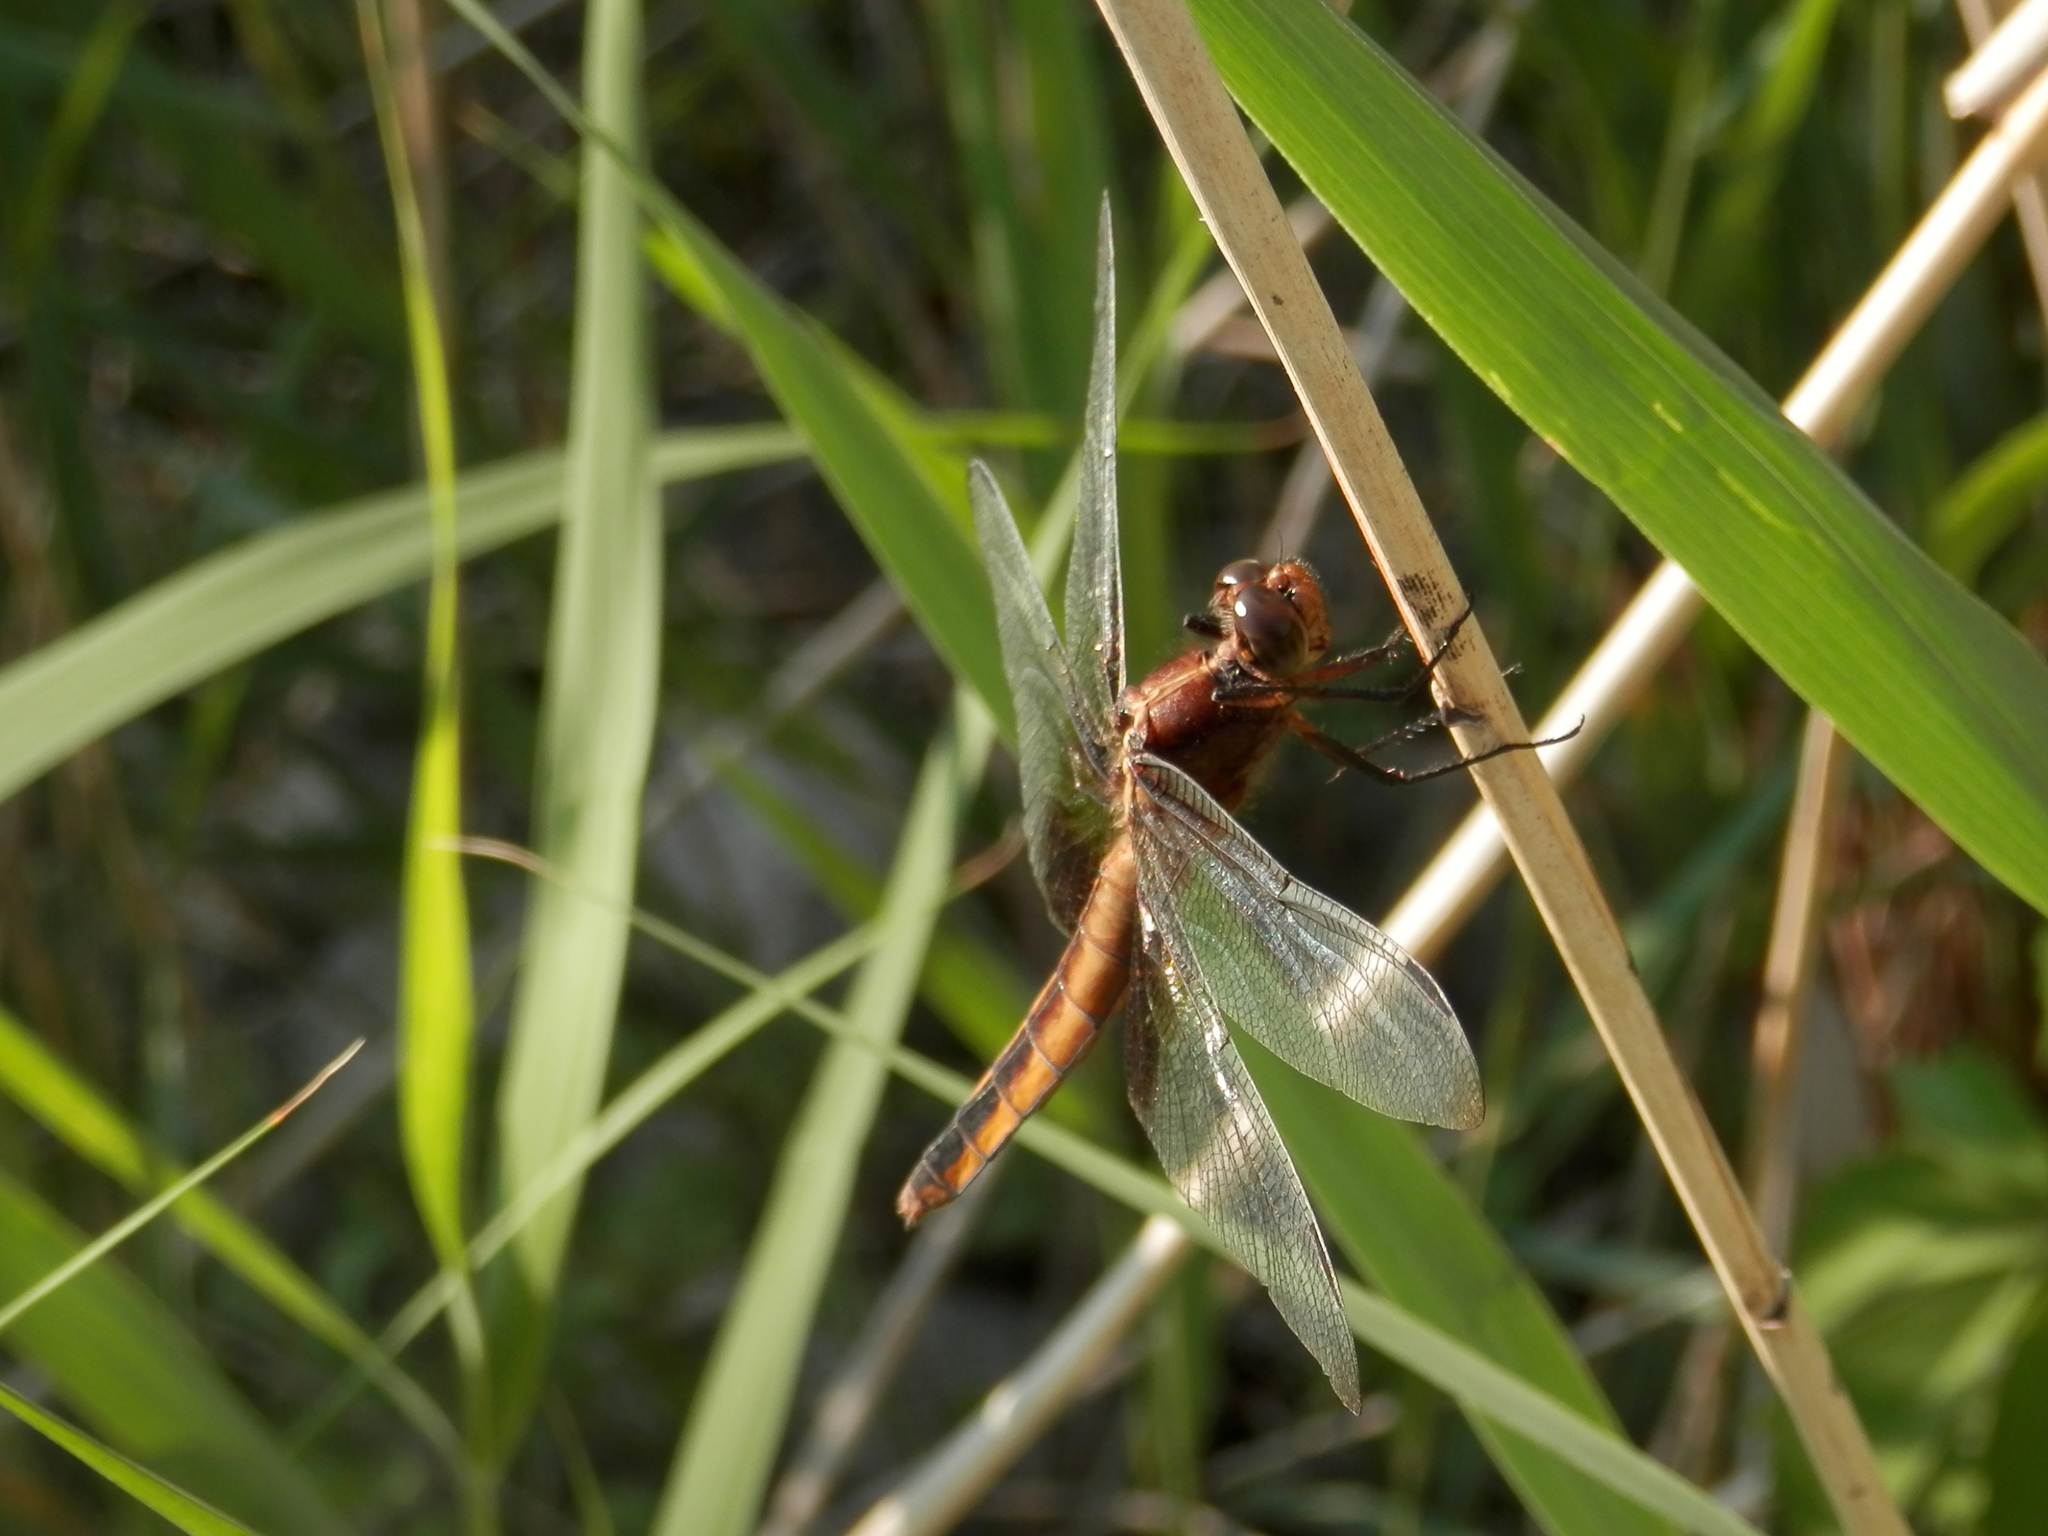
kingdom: Animalia
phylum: Arthropoda
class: Insecta
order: Odonata
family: Libellulidae
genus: Libellula
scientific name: Libellula luctuosa
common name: Widow skimmer
